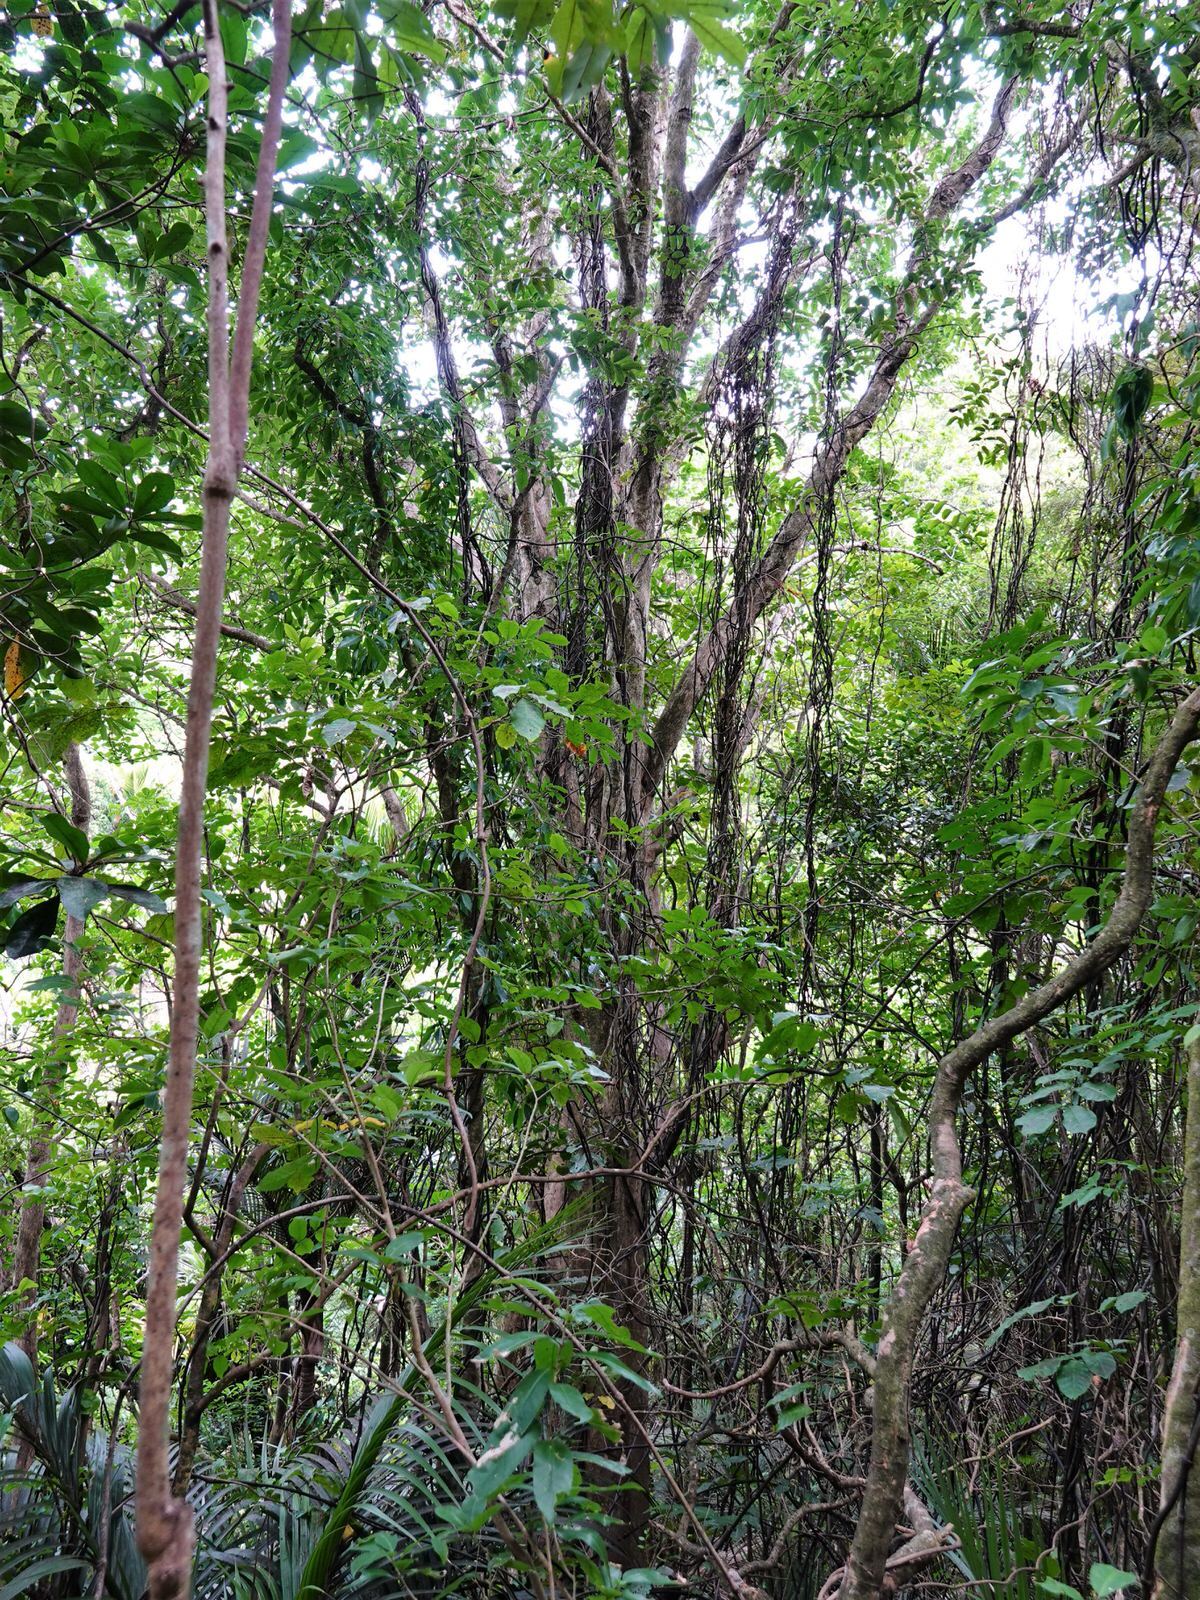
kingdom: Plantae
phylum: Tracheophyta
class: Liliopsida
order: Liliales
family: Ripogonaceae
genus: Ripogonum
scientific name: Ripogonum scandens
